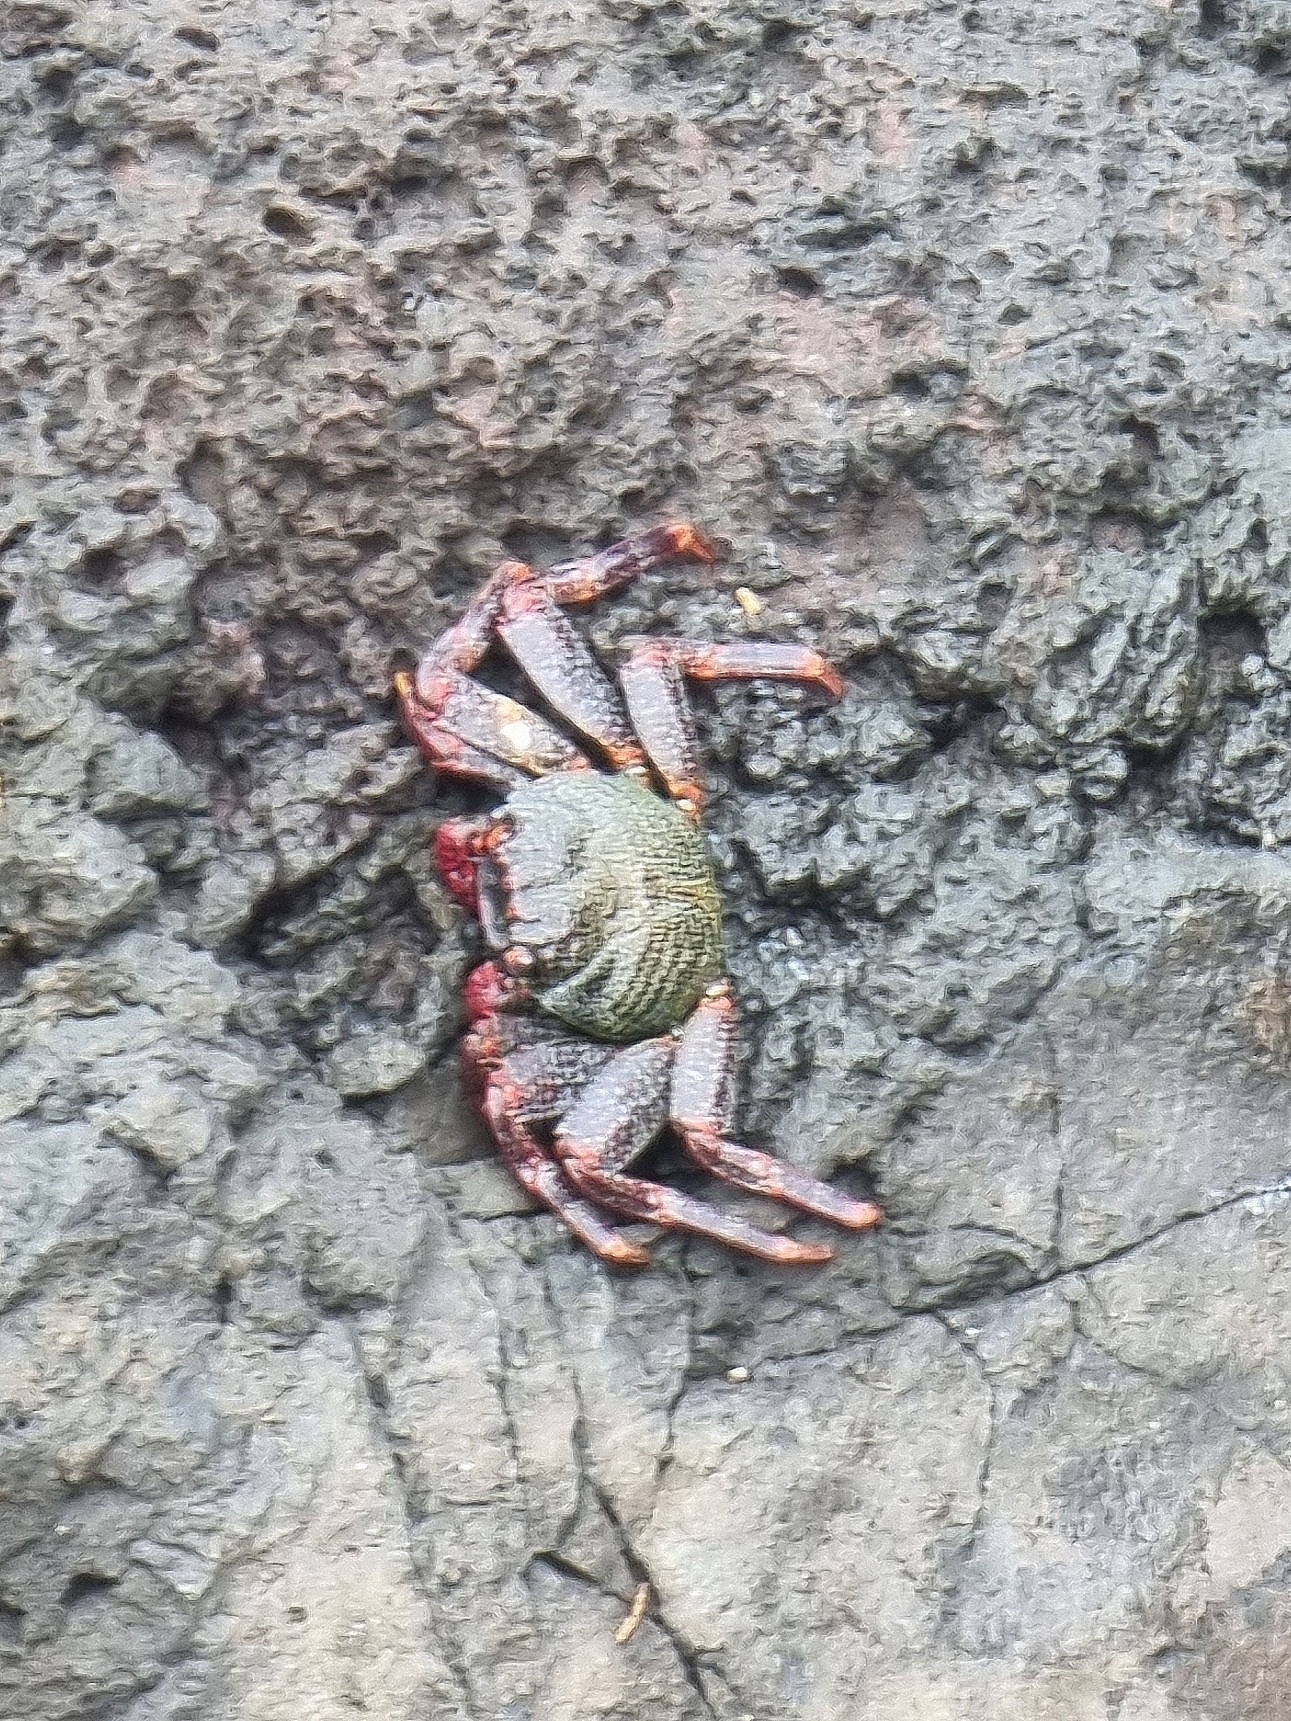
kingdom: Animalia
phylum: Arthropoda
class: Malacostraca
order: Decapoda
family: Grapsidae
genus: Grapsus
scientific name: Grapsus adscensionis
